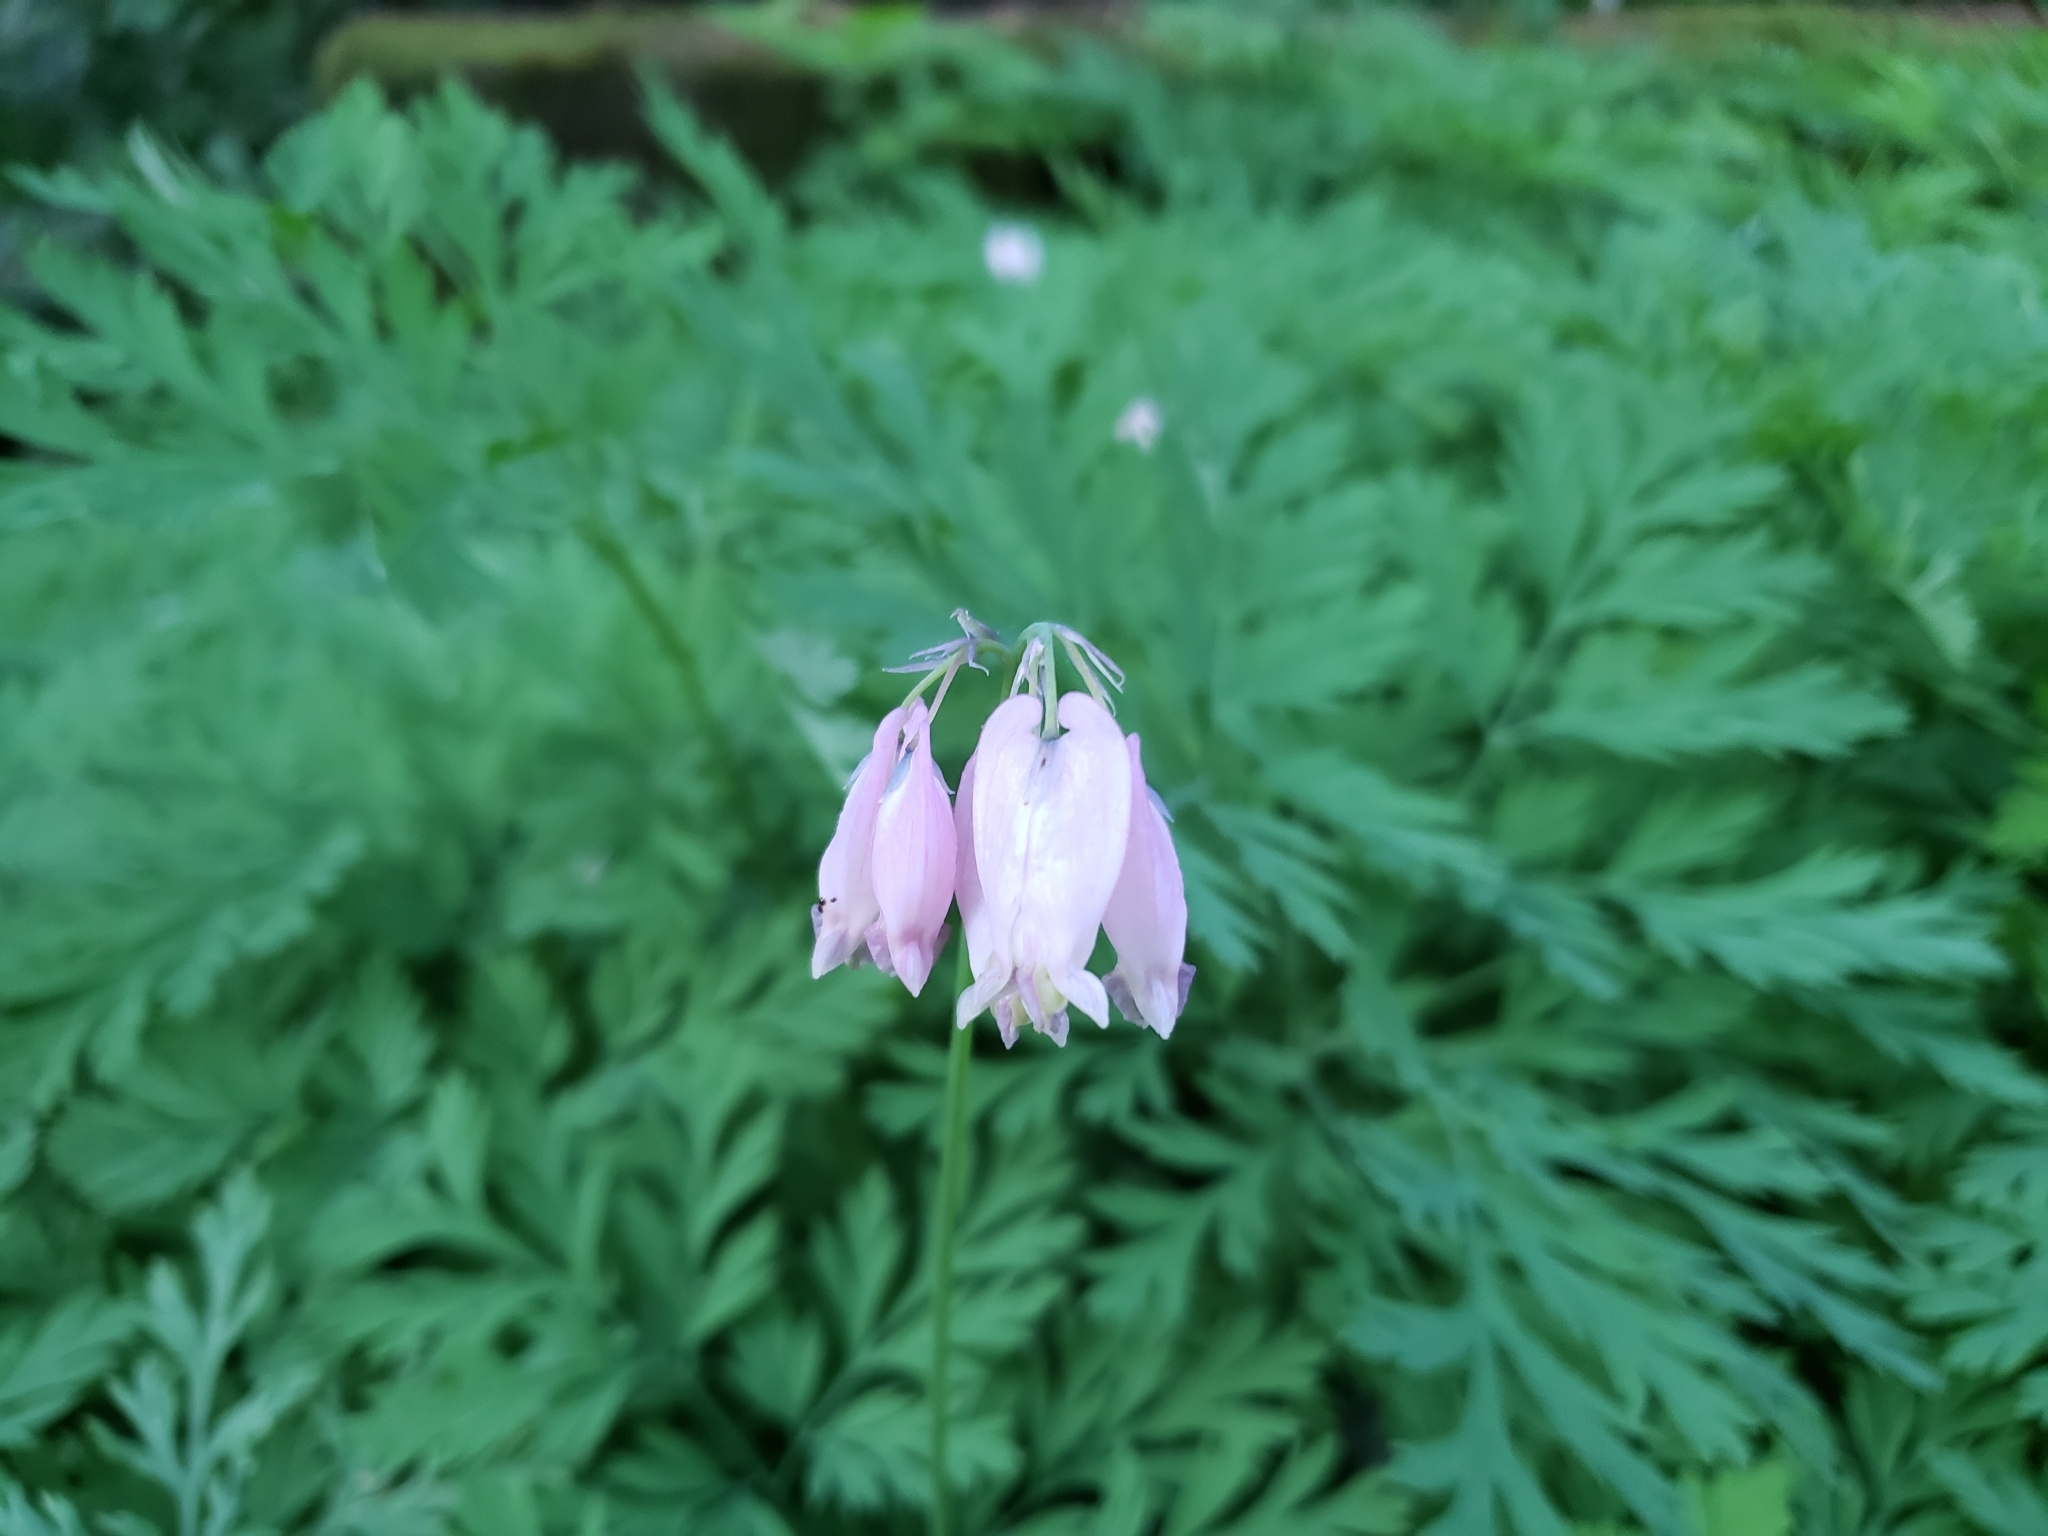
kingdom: Plantae
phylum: Tracheophyta
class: Magnoliopsida
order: Ranunculales
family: Papaveraceae
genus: Dicentra
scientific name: Dicentra formosa
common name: Bleeding-heart
